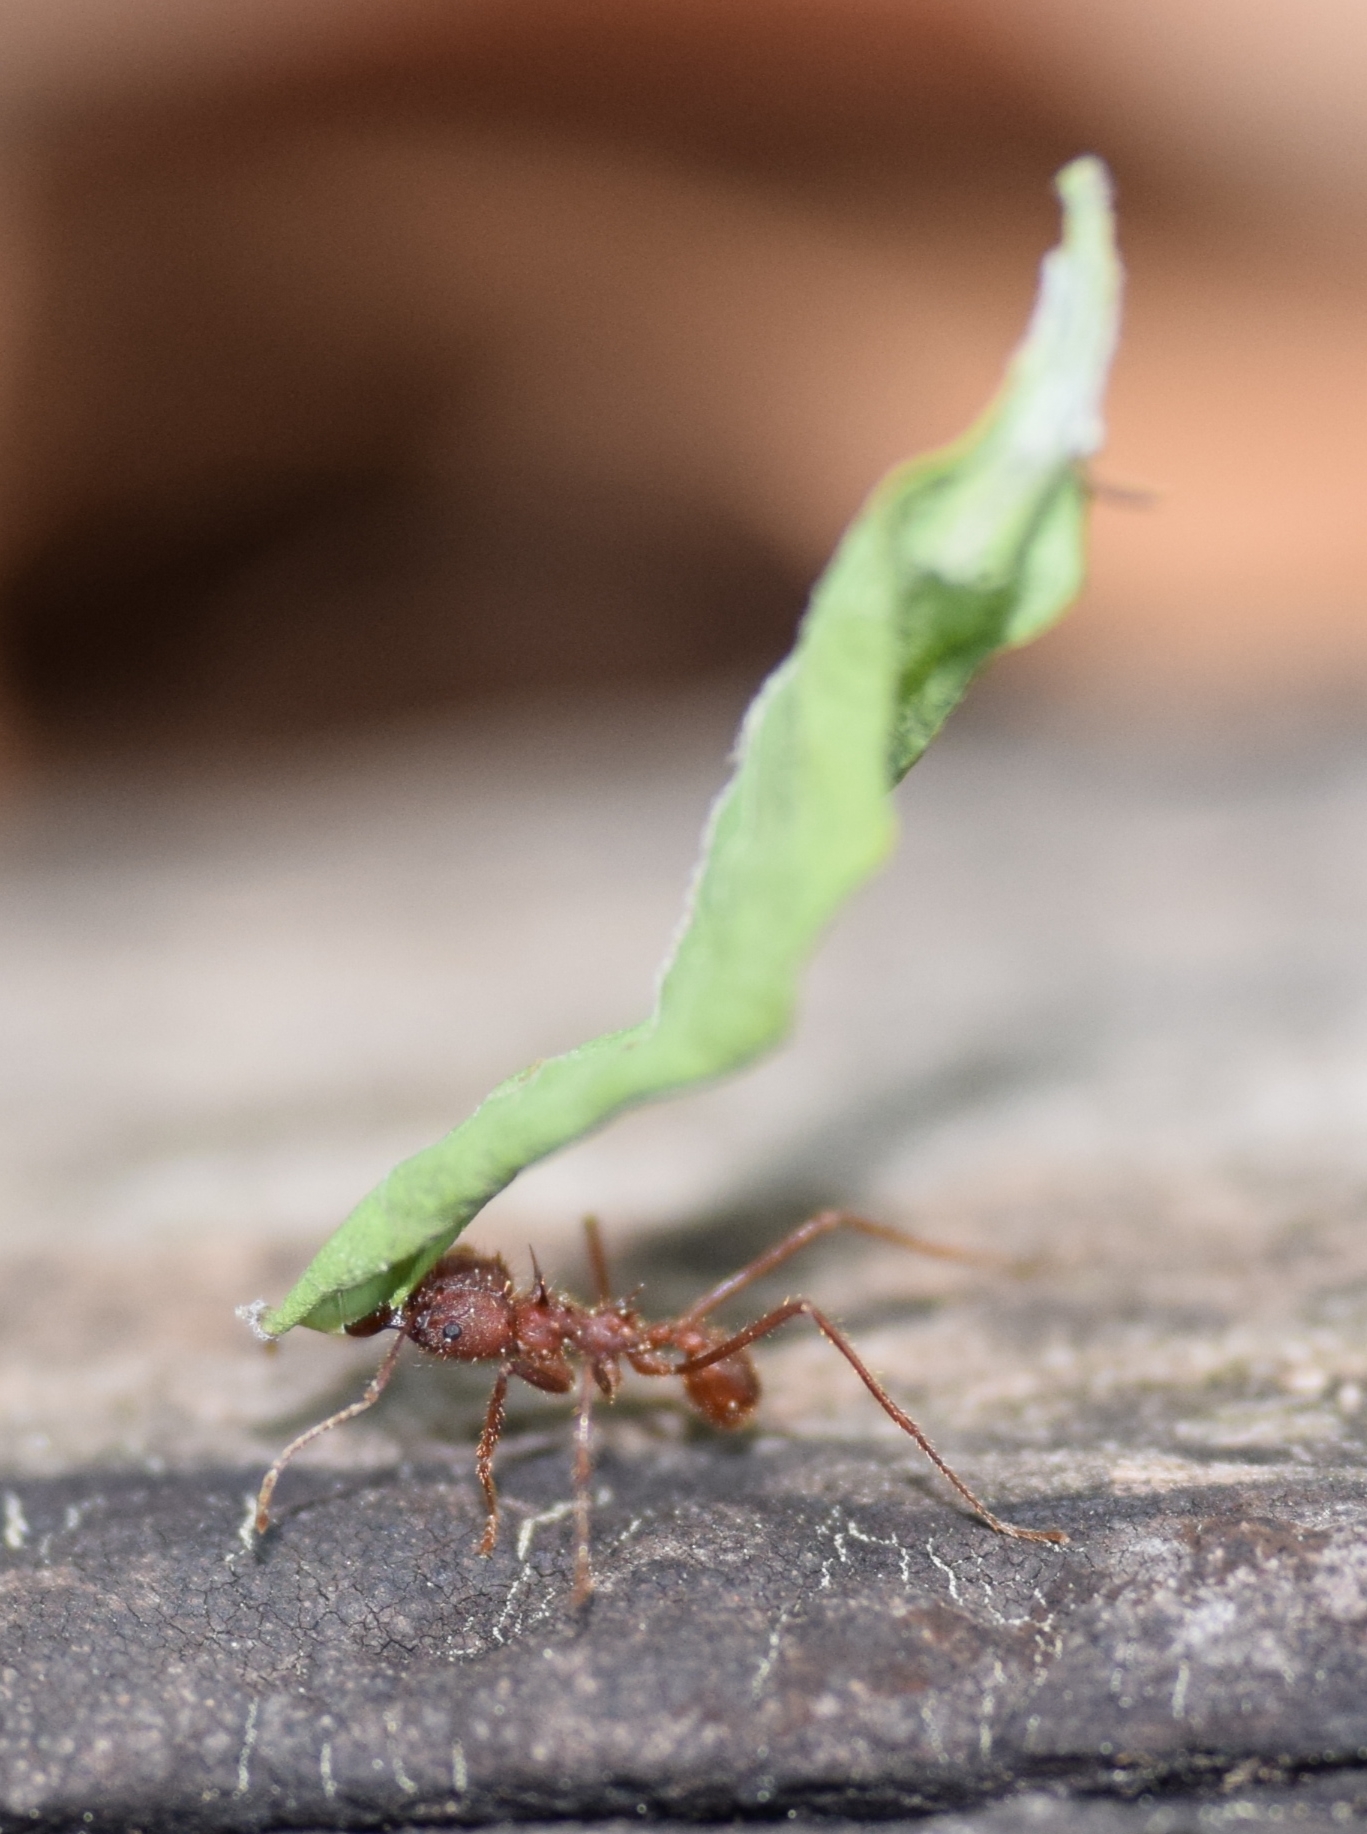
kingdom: Animalia
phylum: Arthropoda
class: Insecta
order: Hymenoptera
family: Formicidae
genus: Atta
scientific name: Atta texana
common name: Texas leafcutting ant
